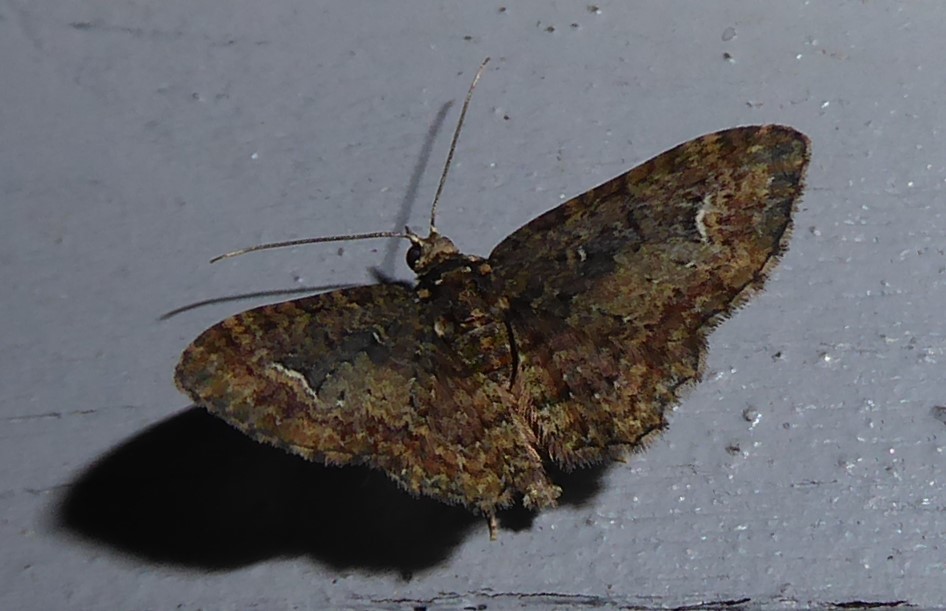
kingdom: Animalia
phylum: Arthropoda
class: Insecta
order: Lepidoptera
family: Geometridae
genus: Pasiphilodes
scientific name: Pasiphilodes testulata
